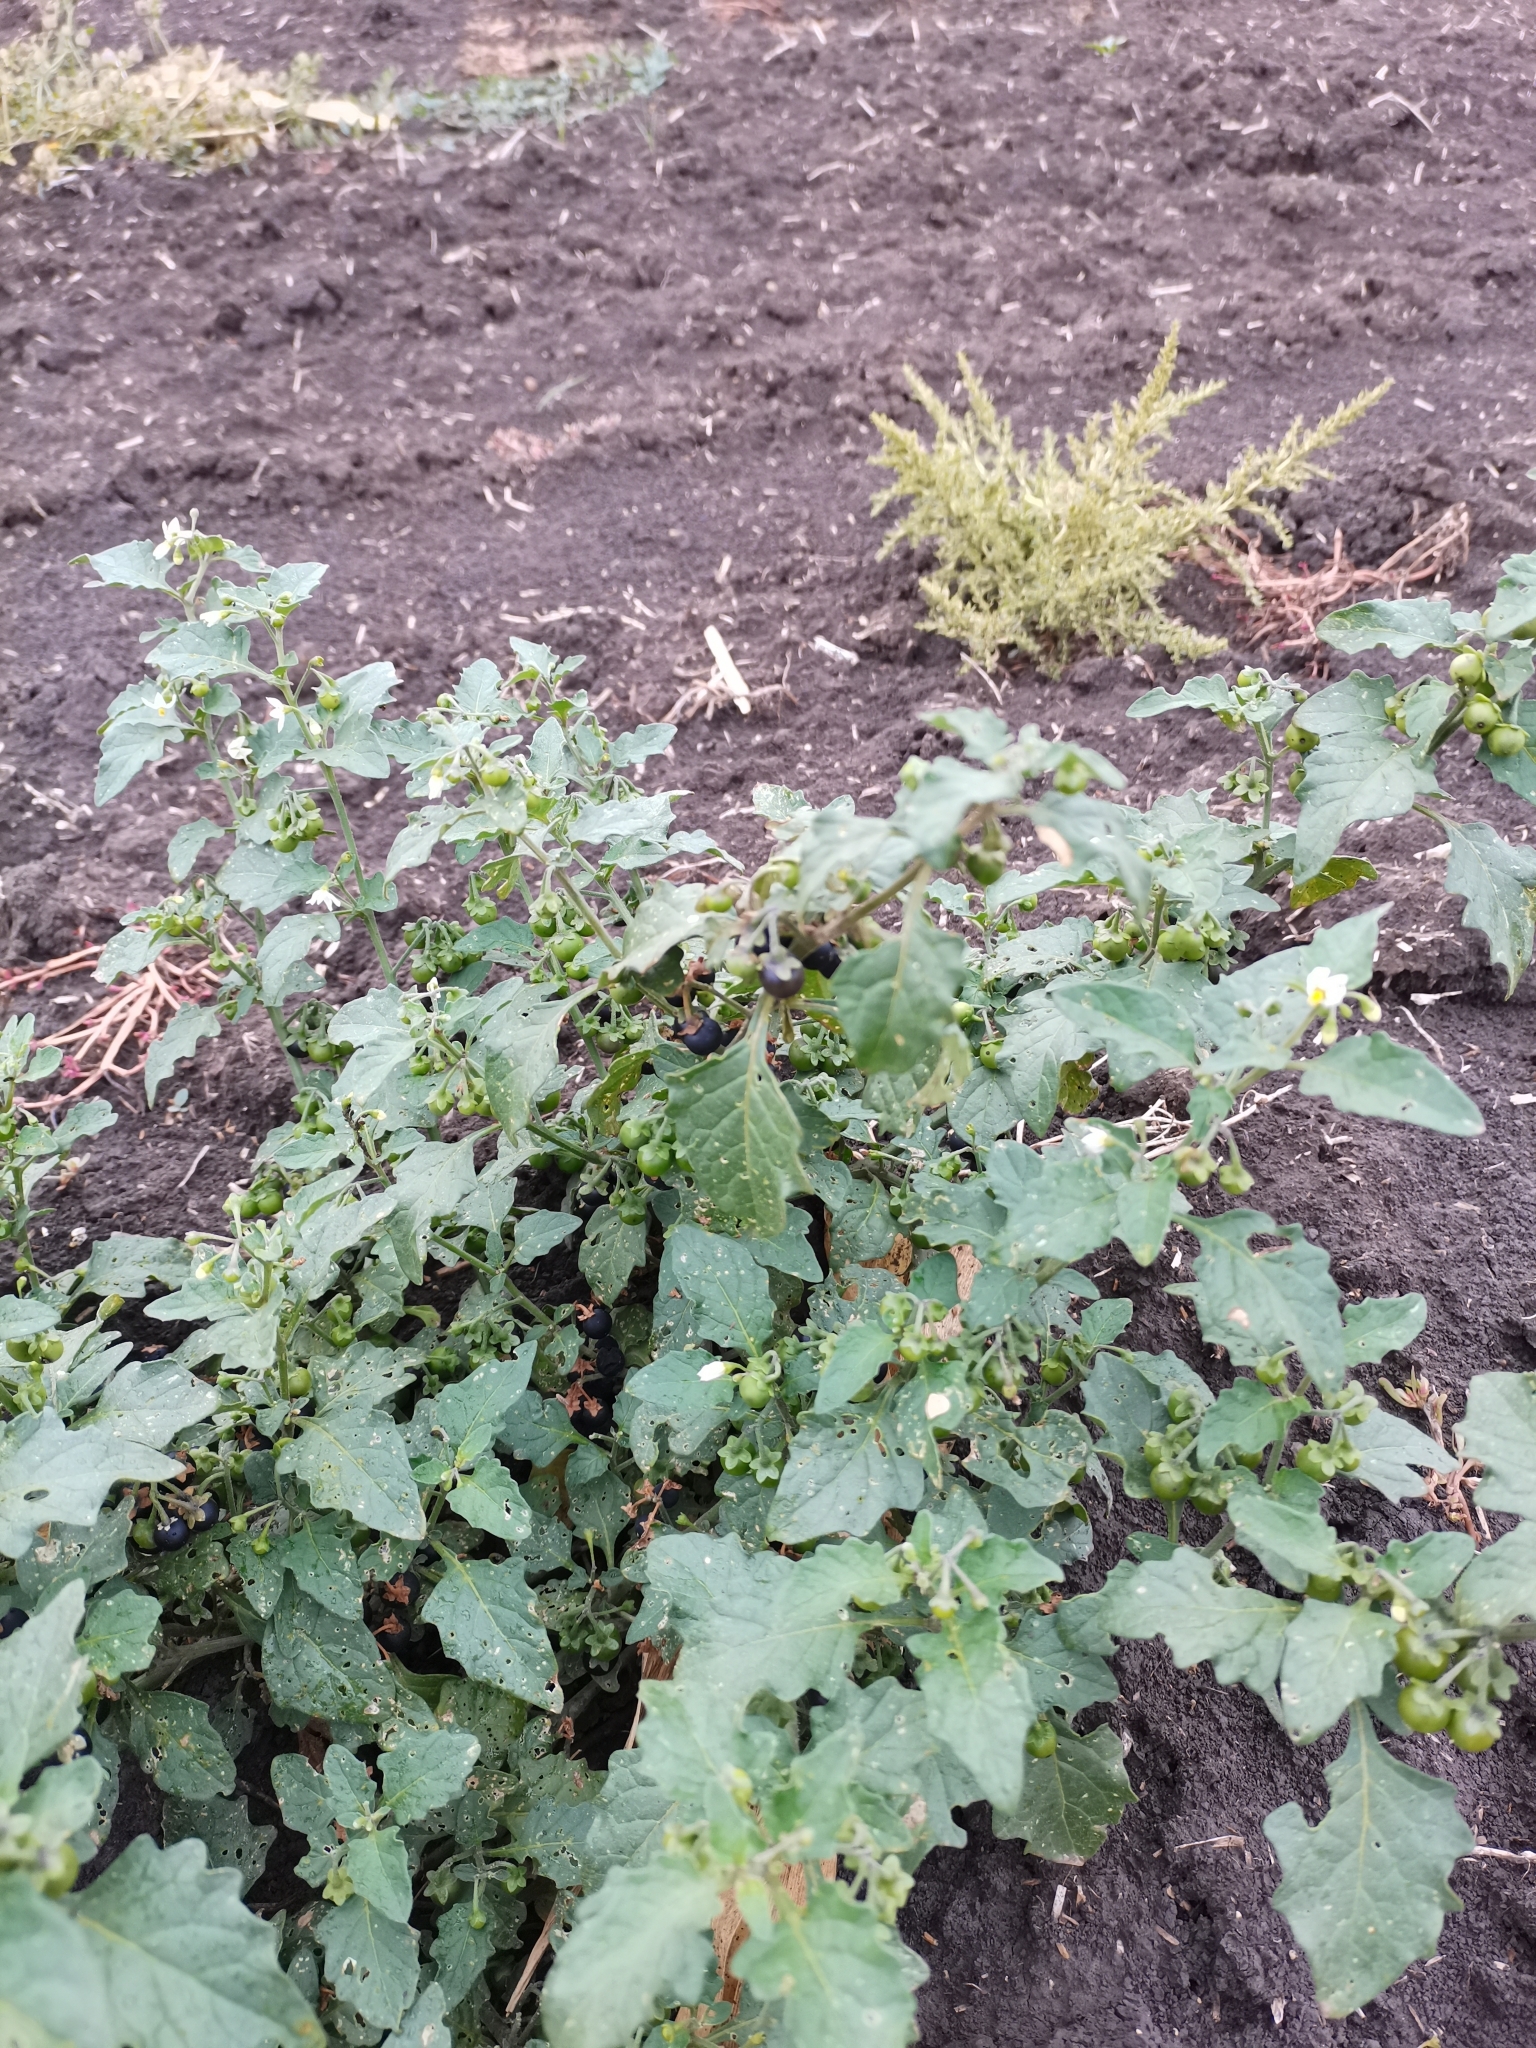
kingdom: Plantae
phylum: Tracheophyta
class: Magnoliopsida
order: Solanales
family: Solanaceae
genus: Solanum
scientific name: Solanum nigrum
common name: Black nightshade
